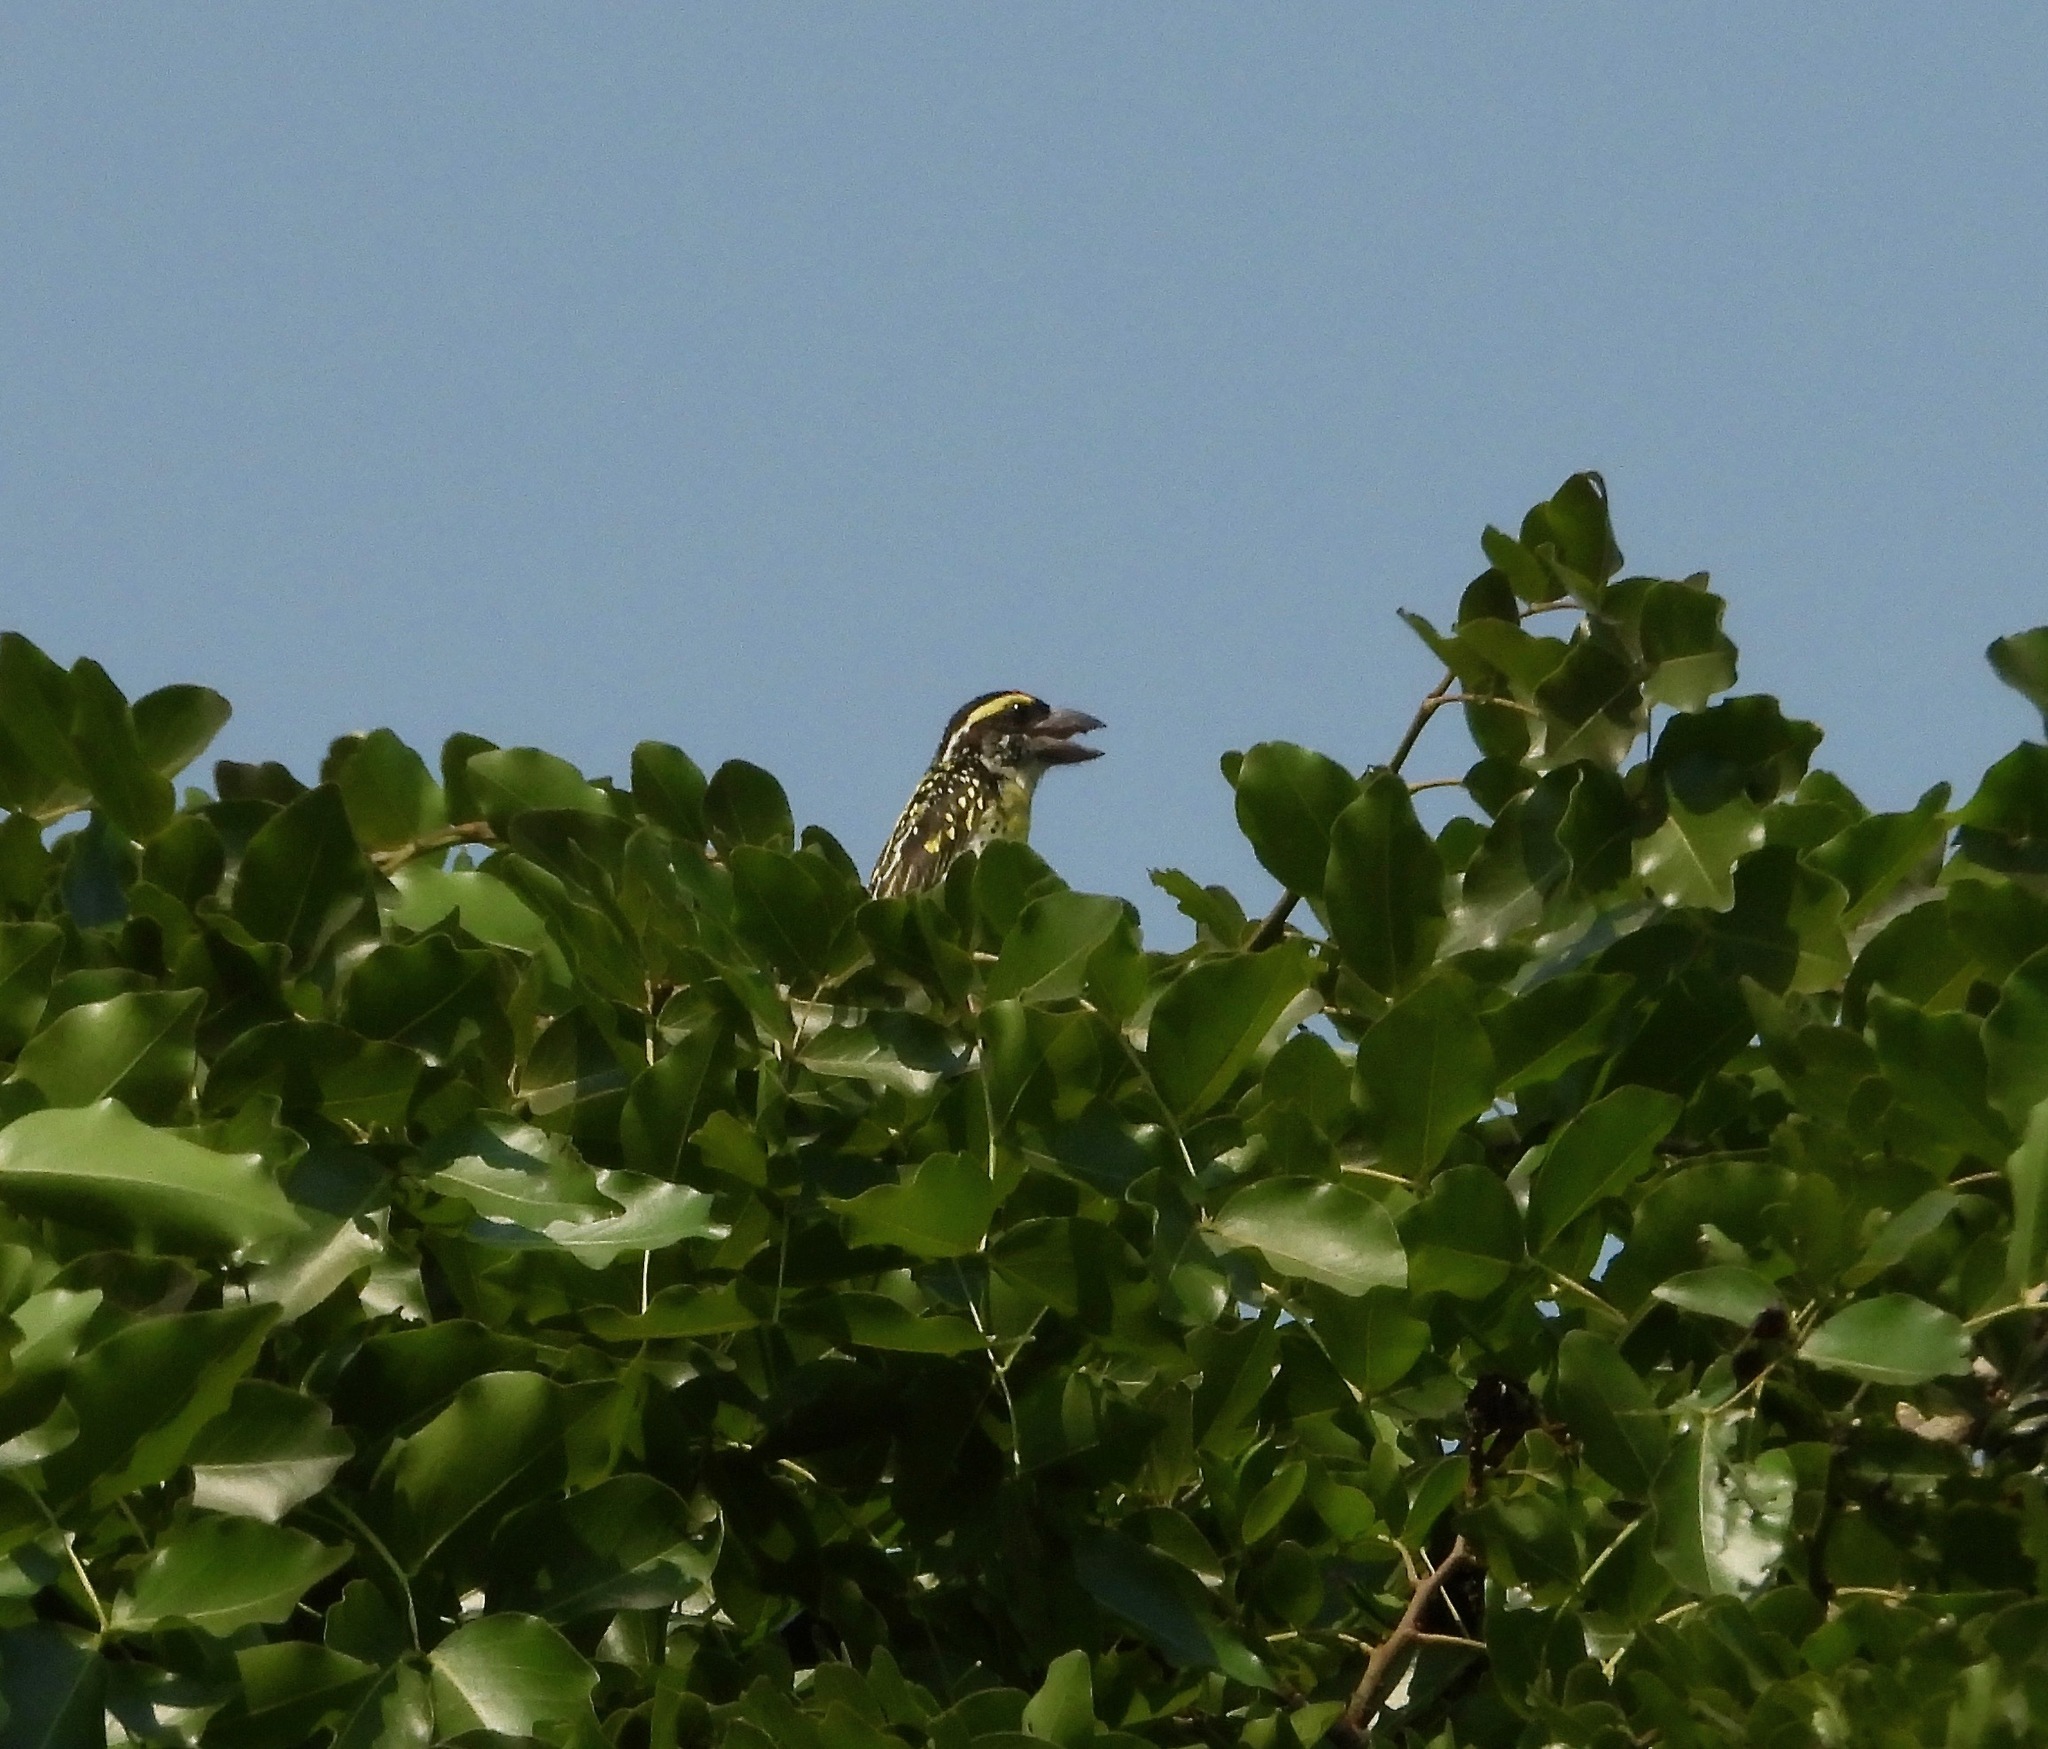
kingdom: Animalia
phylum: Chordata
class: Aves
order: Piciformes
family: Lybiidae
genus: Tricholaema
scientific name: Tricholaema frontata
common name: Miombo pied barbet
